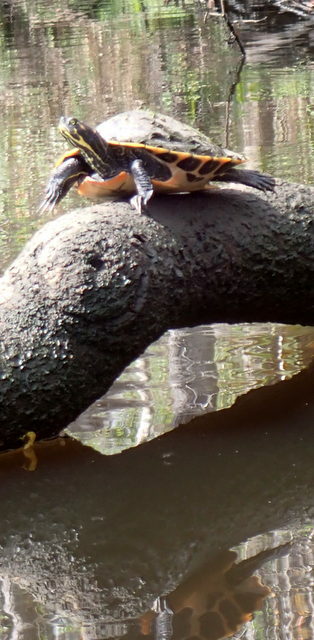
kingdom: Animalia
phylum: Chordata
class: Testudines
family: Emydidae
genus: Pseudemys
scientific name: Pseudemys concinna
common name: Eastern river cooter
